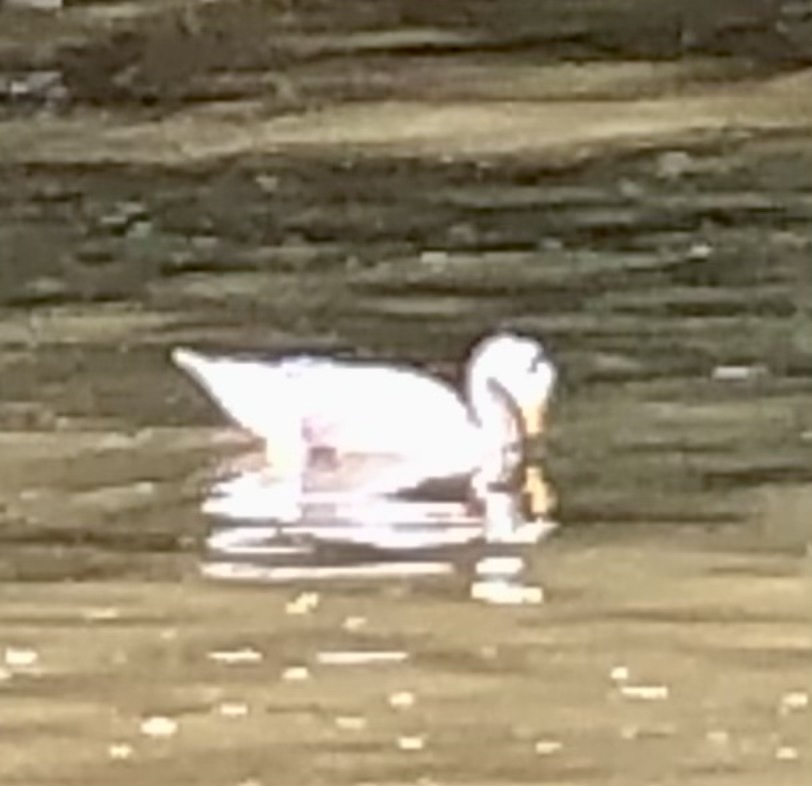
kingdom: Animalia
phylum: Chordata
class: Aves
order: Anseriformes
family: Anatidae
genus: Anser
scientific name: Anser indicus
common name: Bar-headed goose
